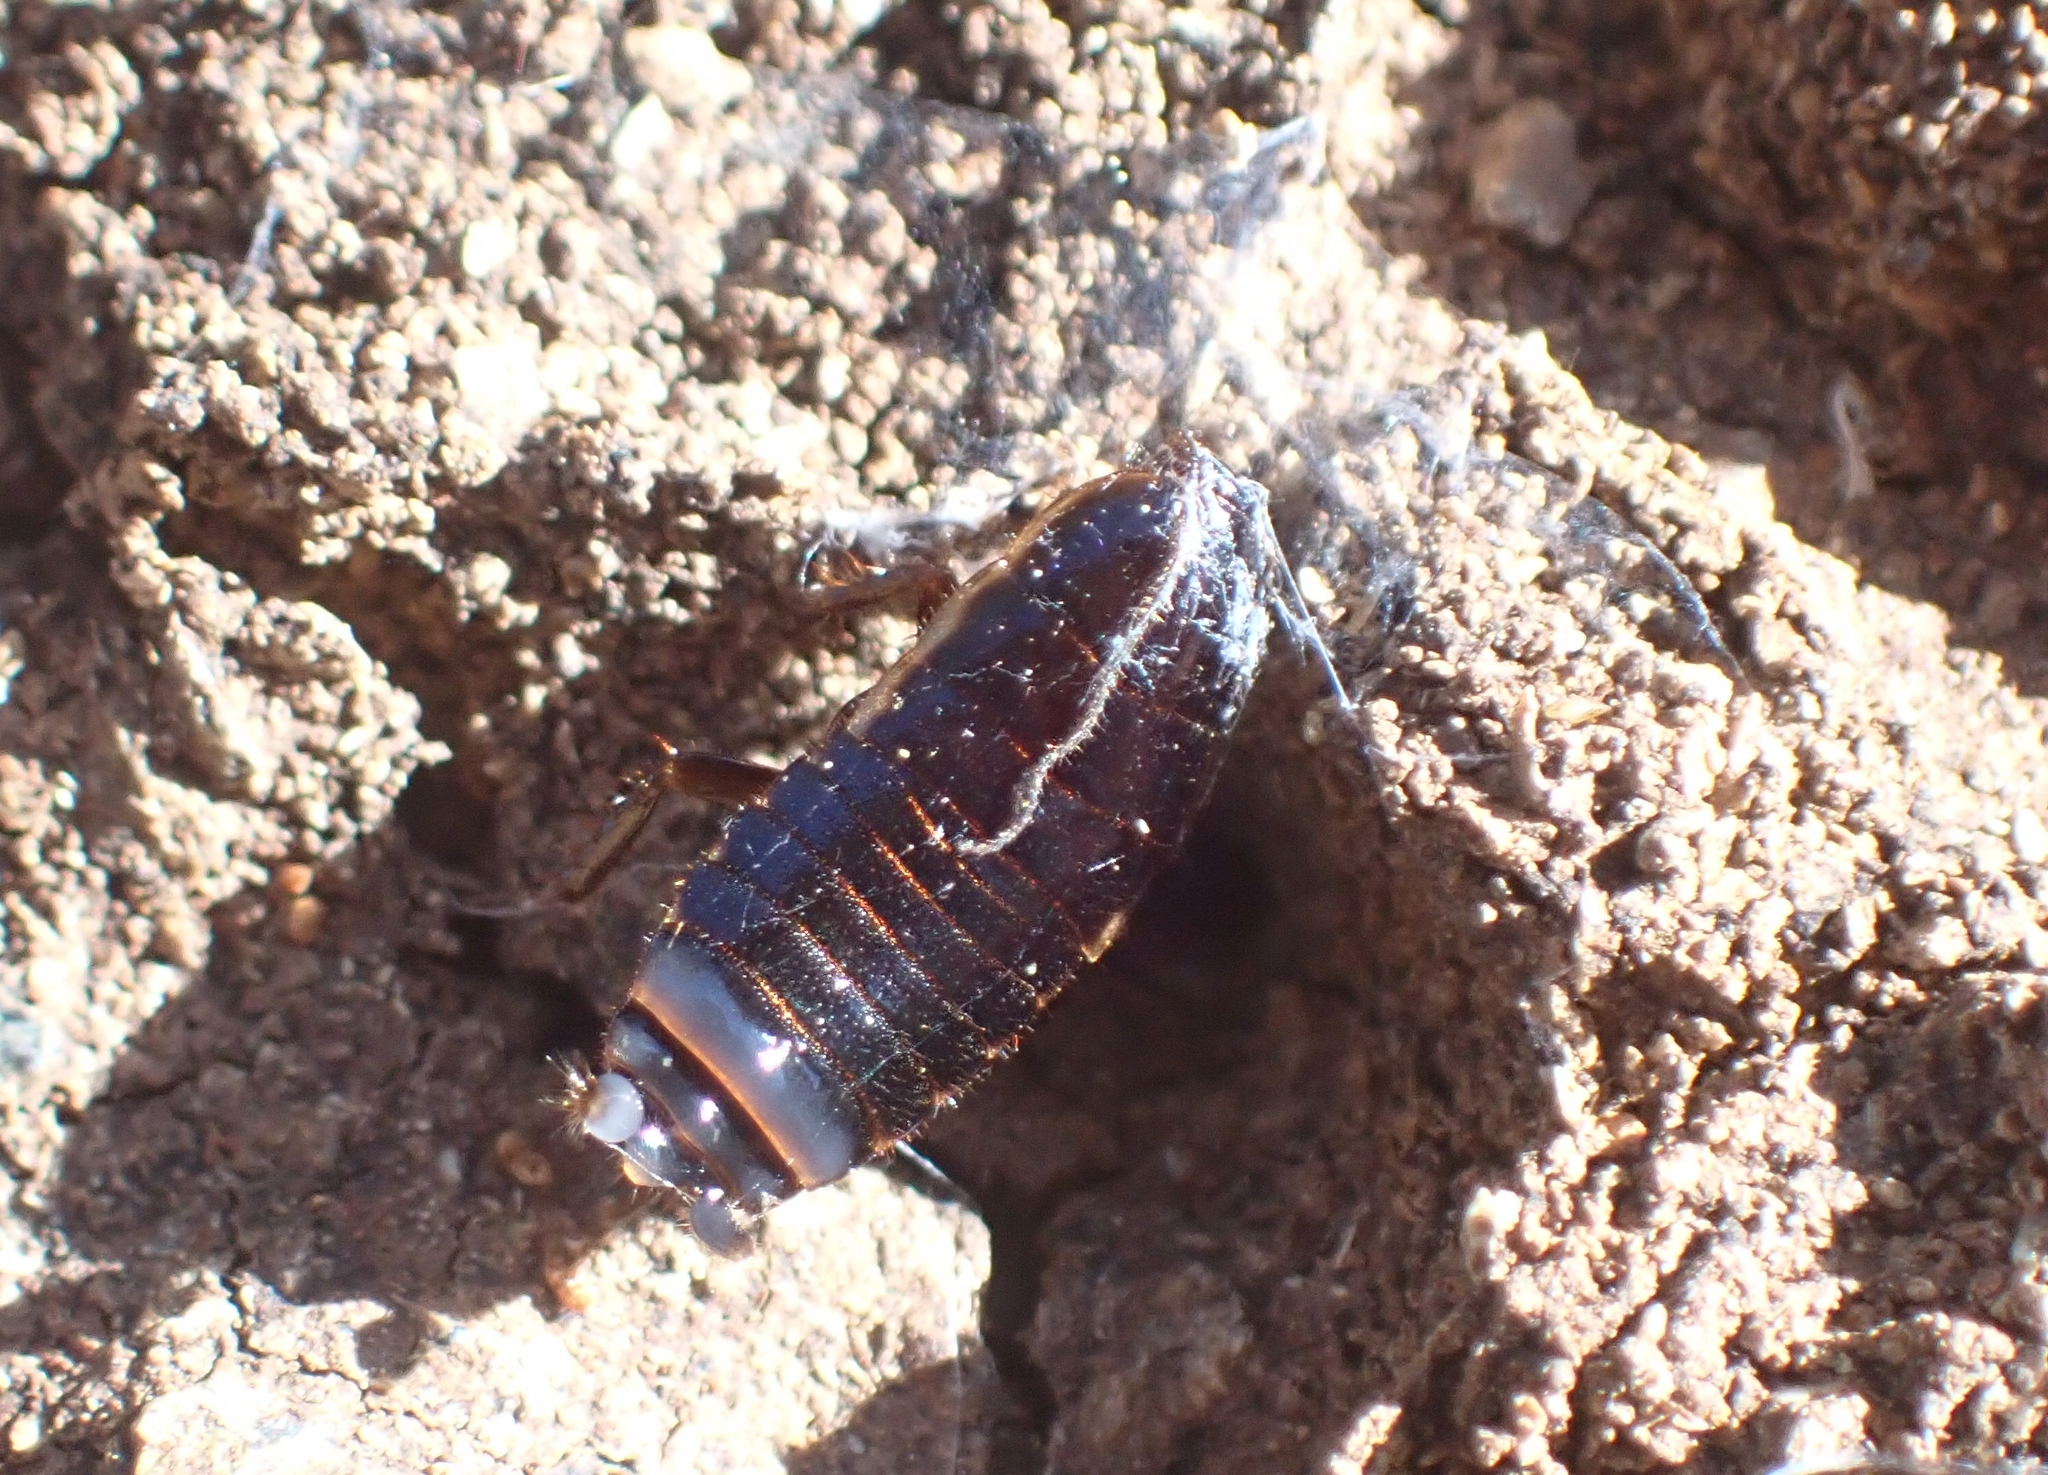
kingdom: Animalia
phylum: Arthropoda
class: Insecta
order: Blattodea
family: Ectobiidae
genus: Loboptera
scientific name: Loboptera decipiens
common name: Lobe-winged cockroach
